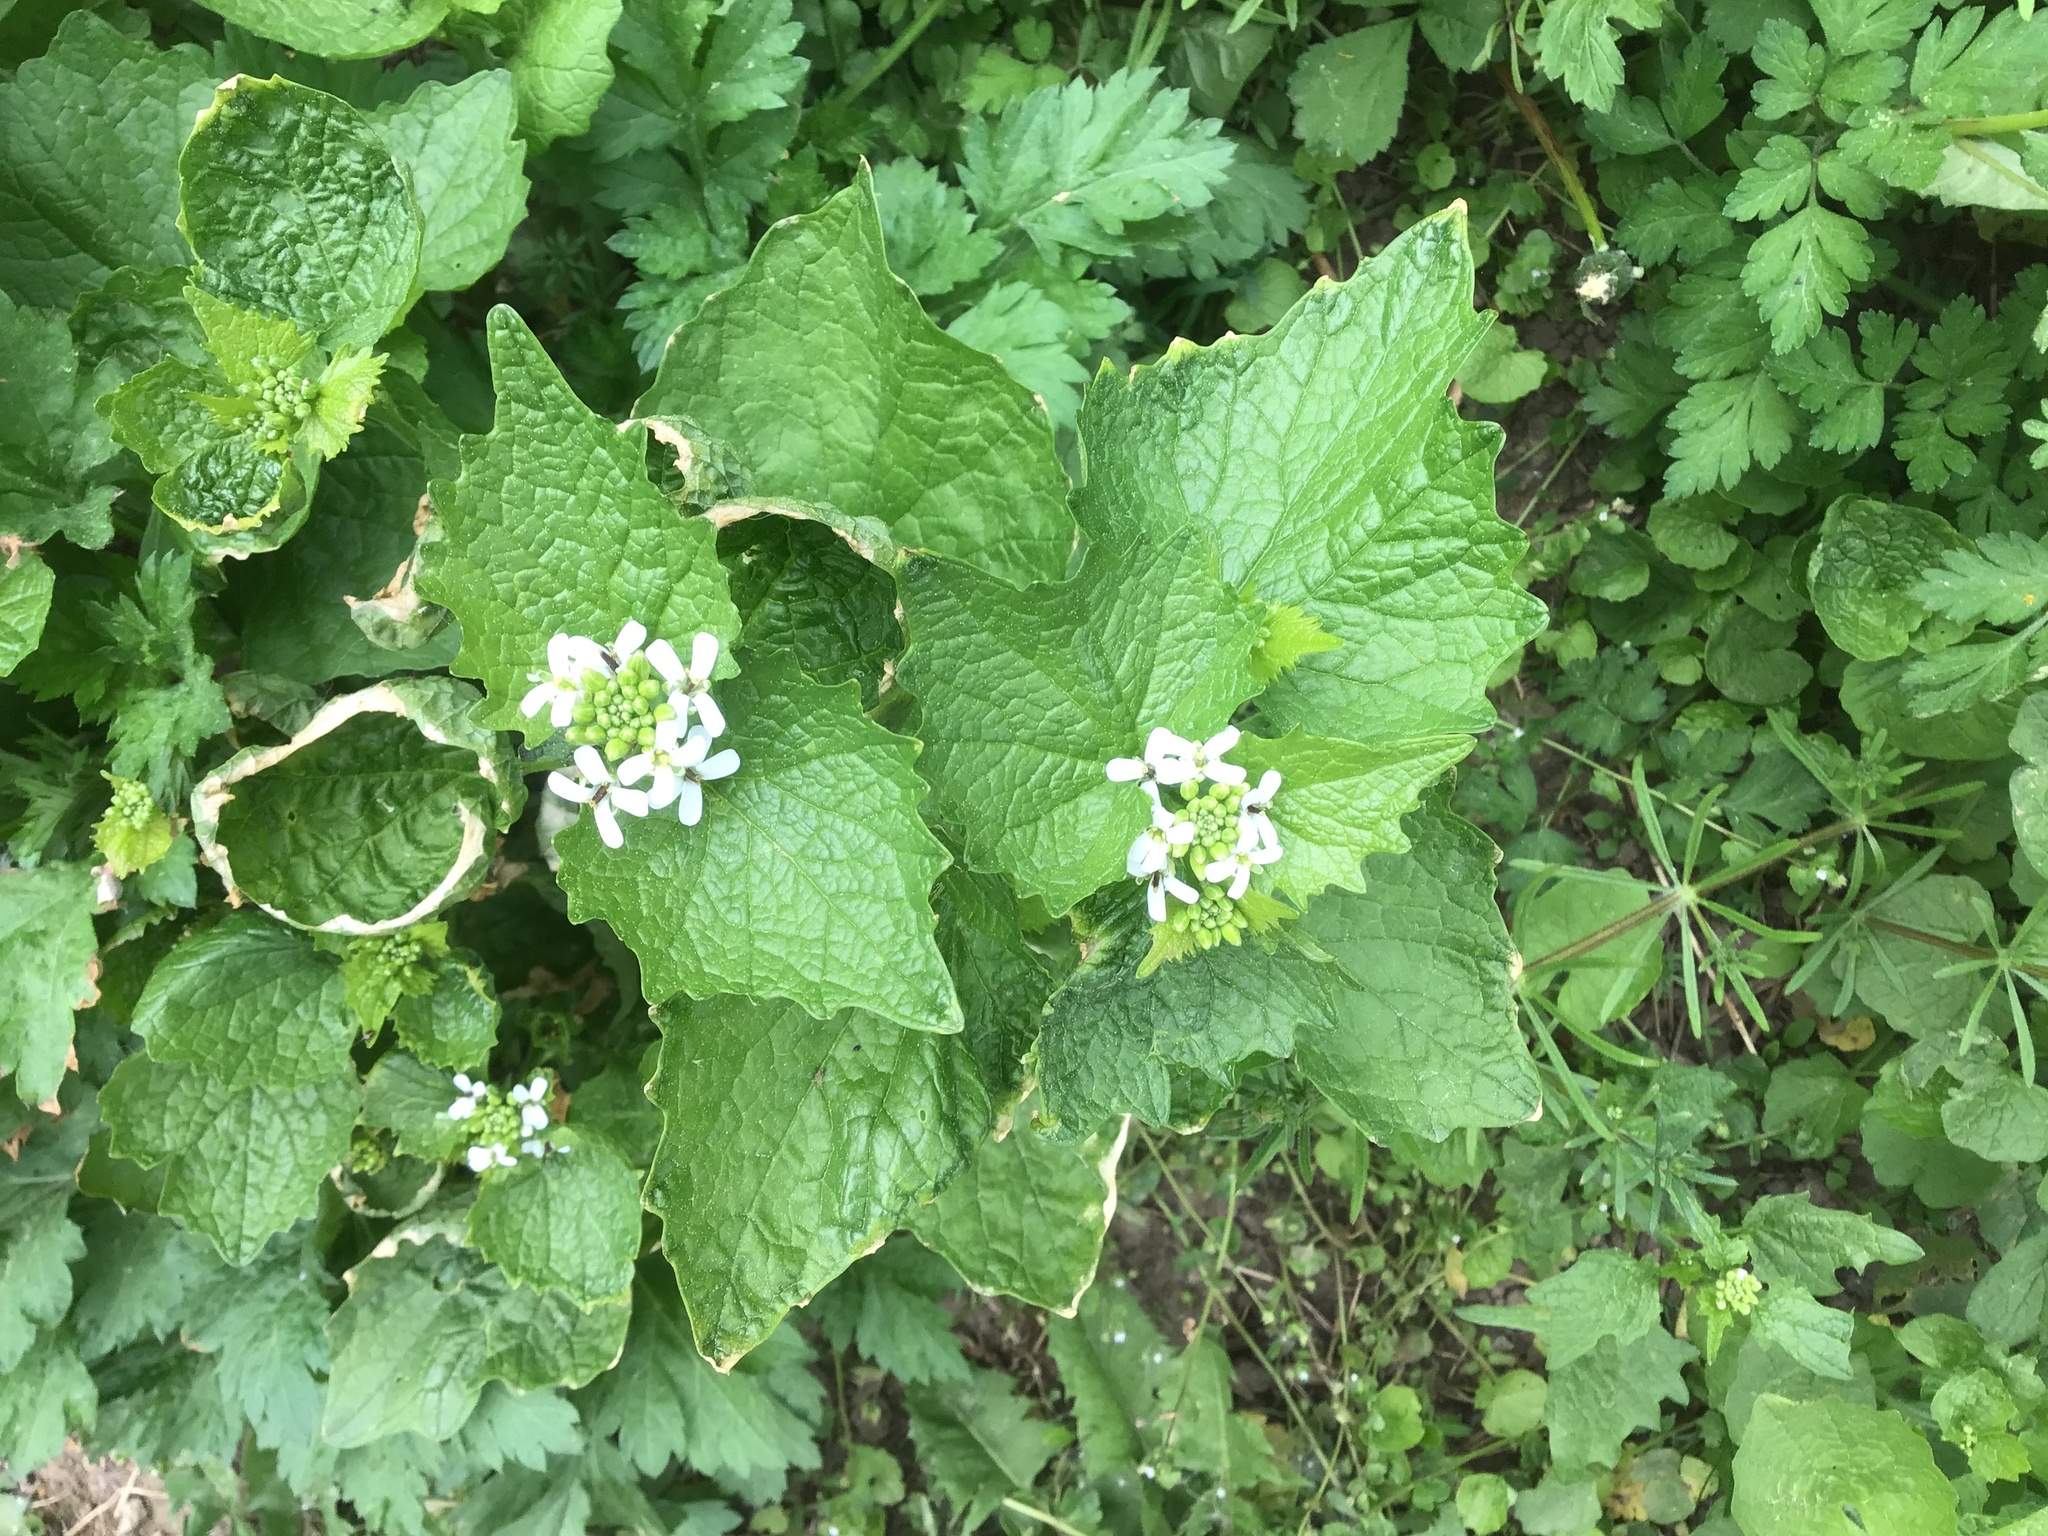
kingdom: Plantae
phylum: Tracheophyta
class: Magnoliopsida
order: Brassicales
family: Brassicaceae
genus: Alliaria
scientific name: Alliaria petiolata
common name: Garlic mustard
